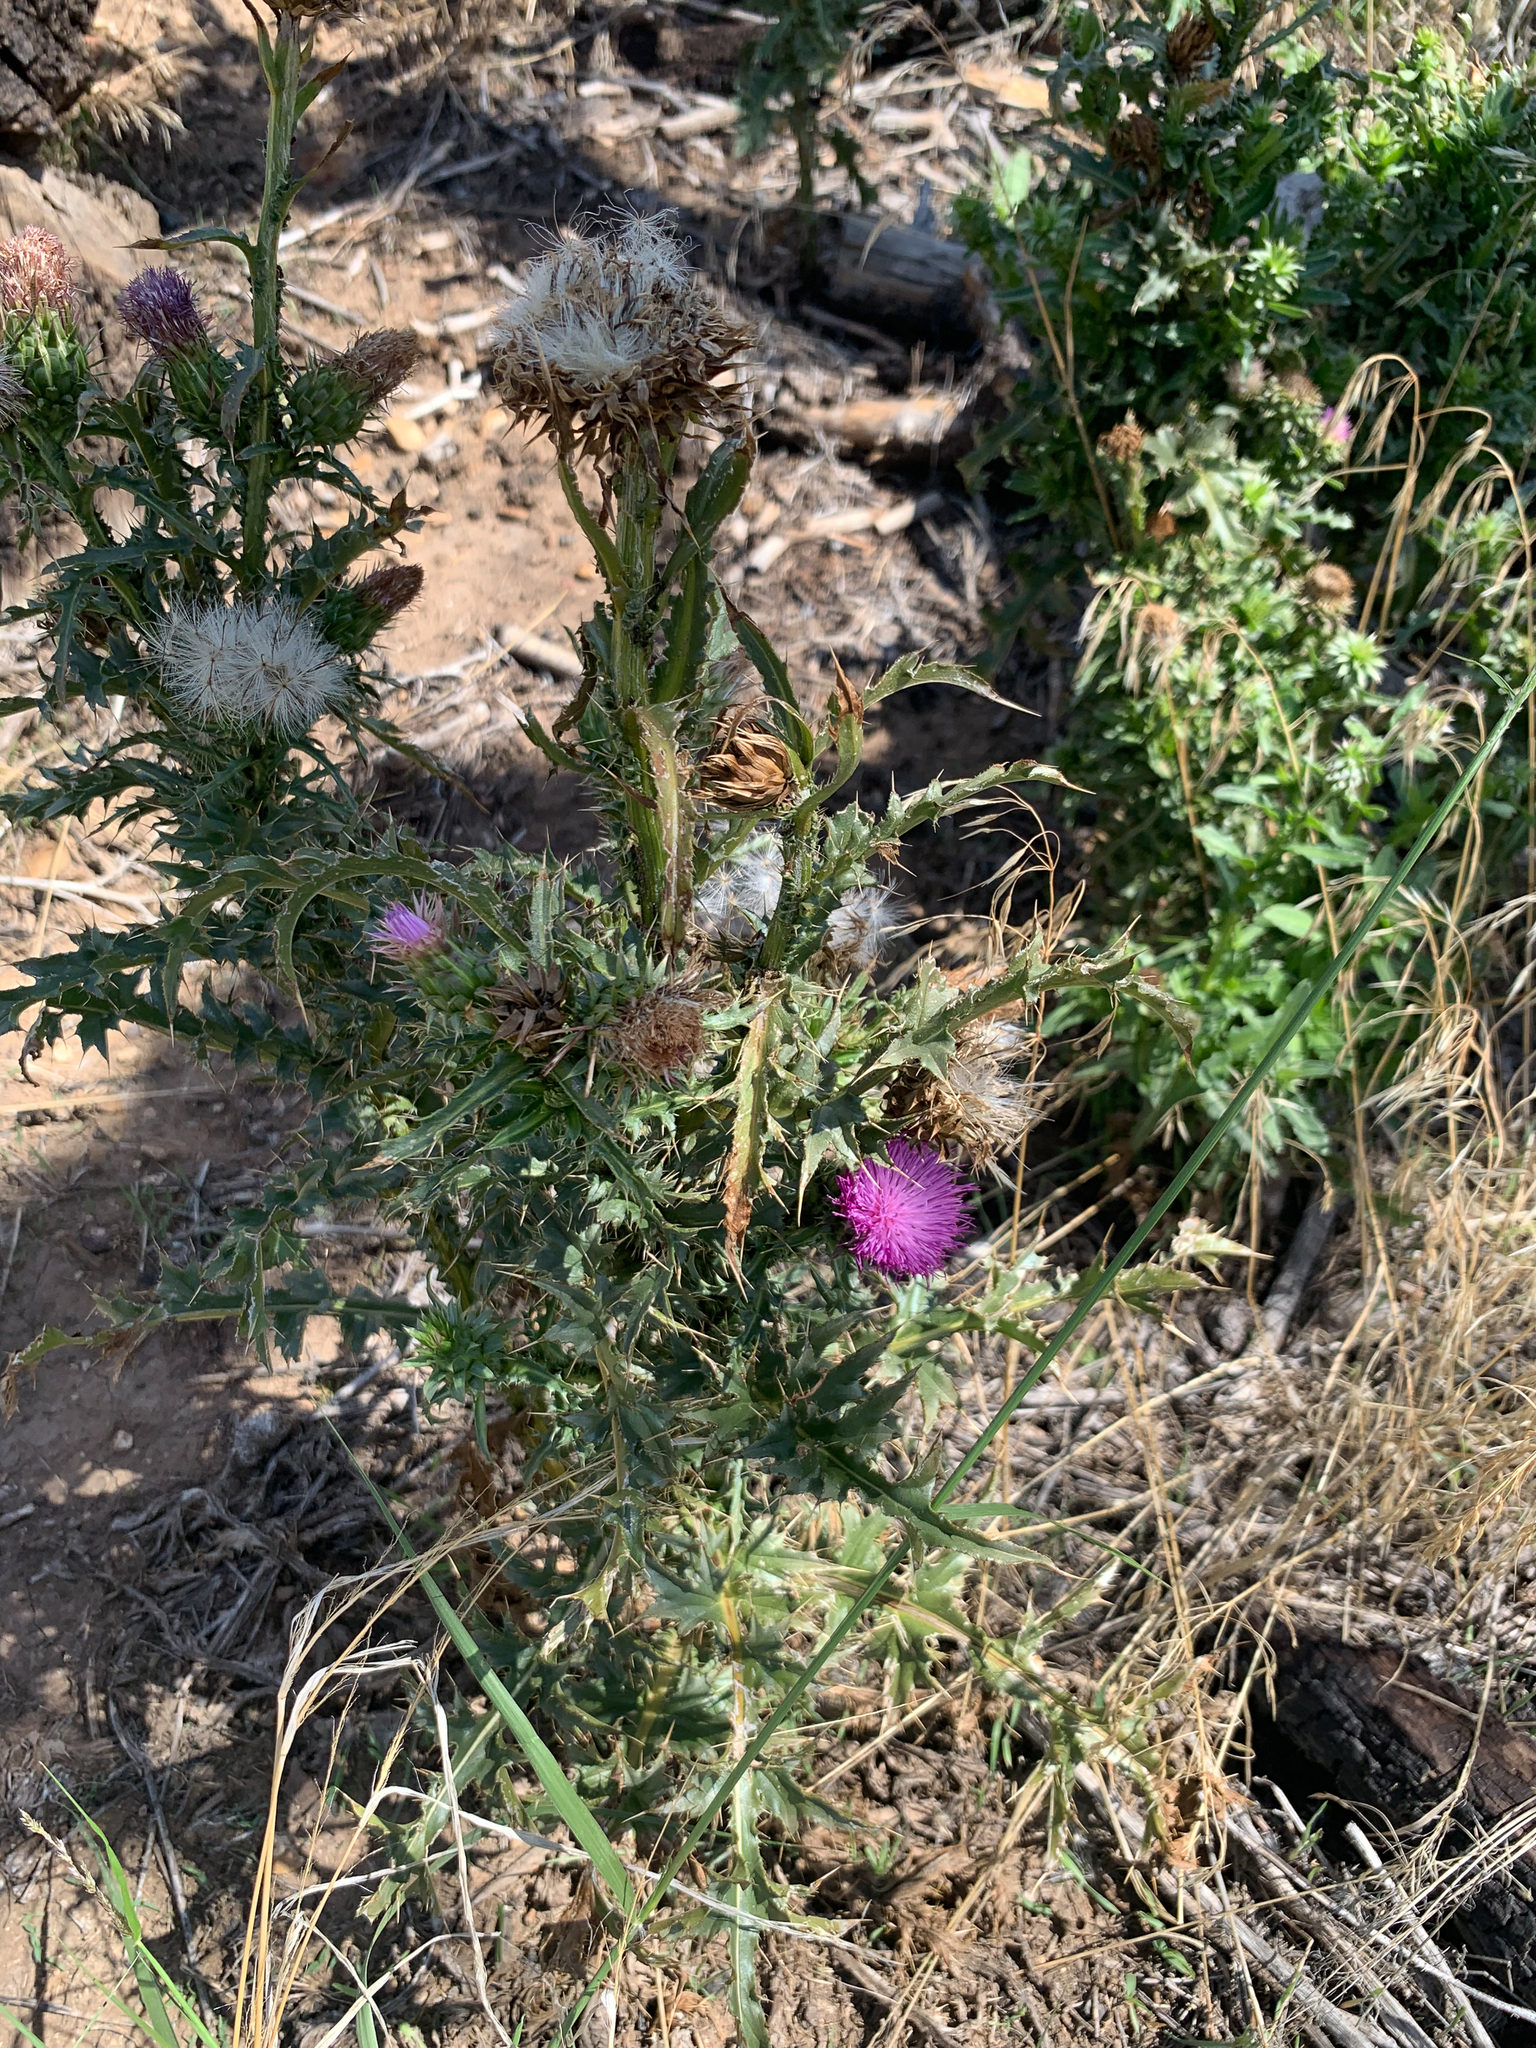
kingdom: Plantae
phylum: Tracheophyta
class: Magnoliopsida
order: Asterales
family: Asteraceae
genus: Carduus
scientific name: Carduus nutans
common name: Musk thistle
